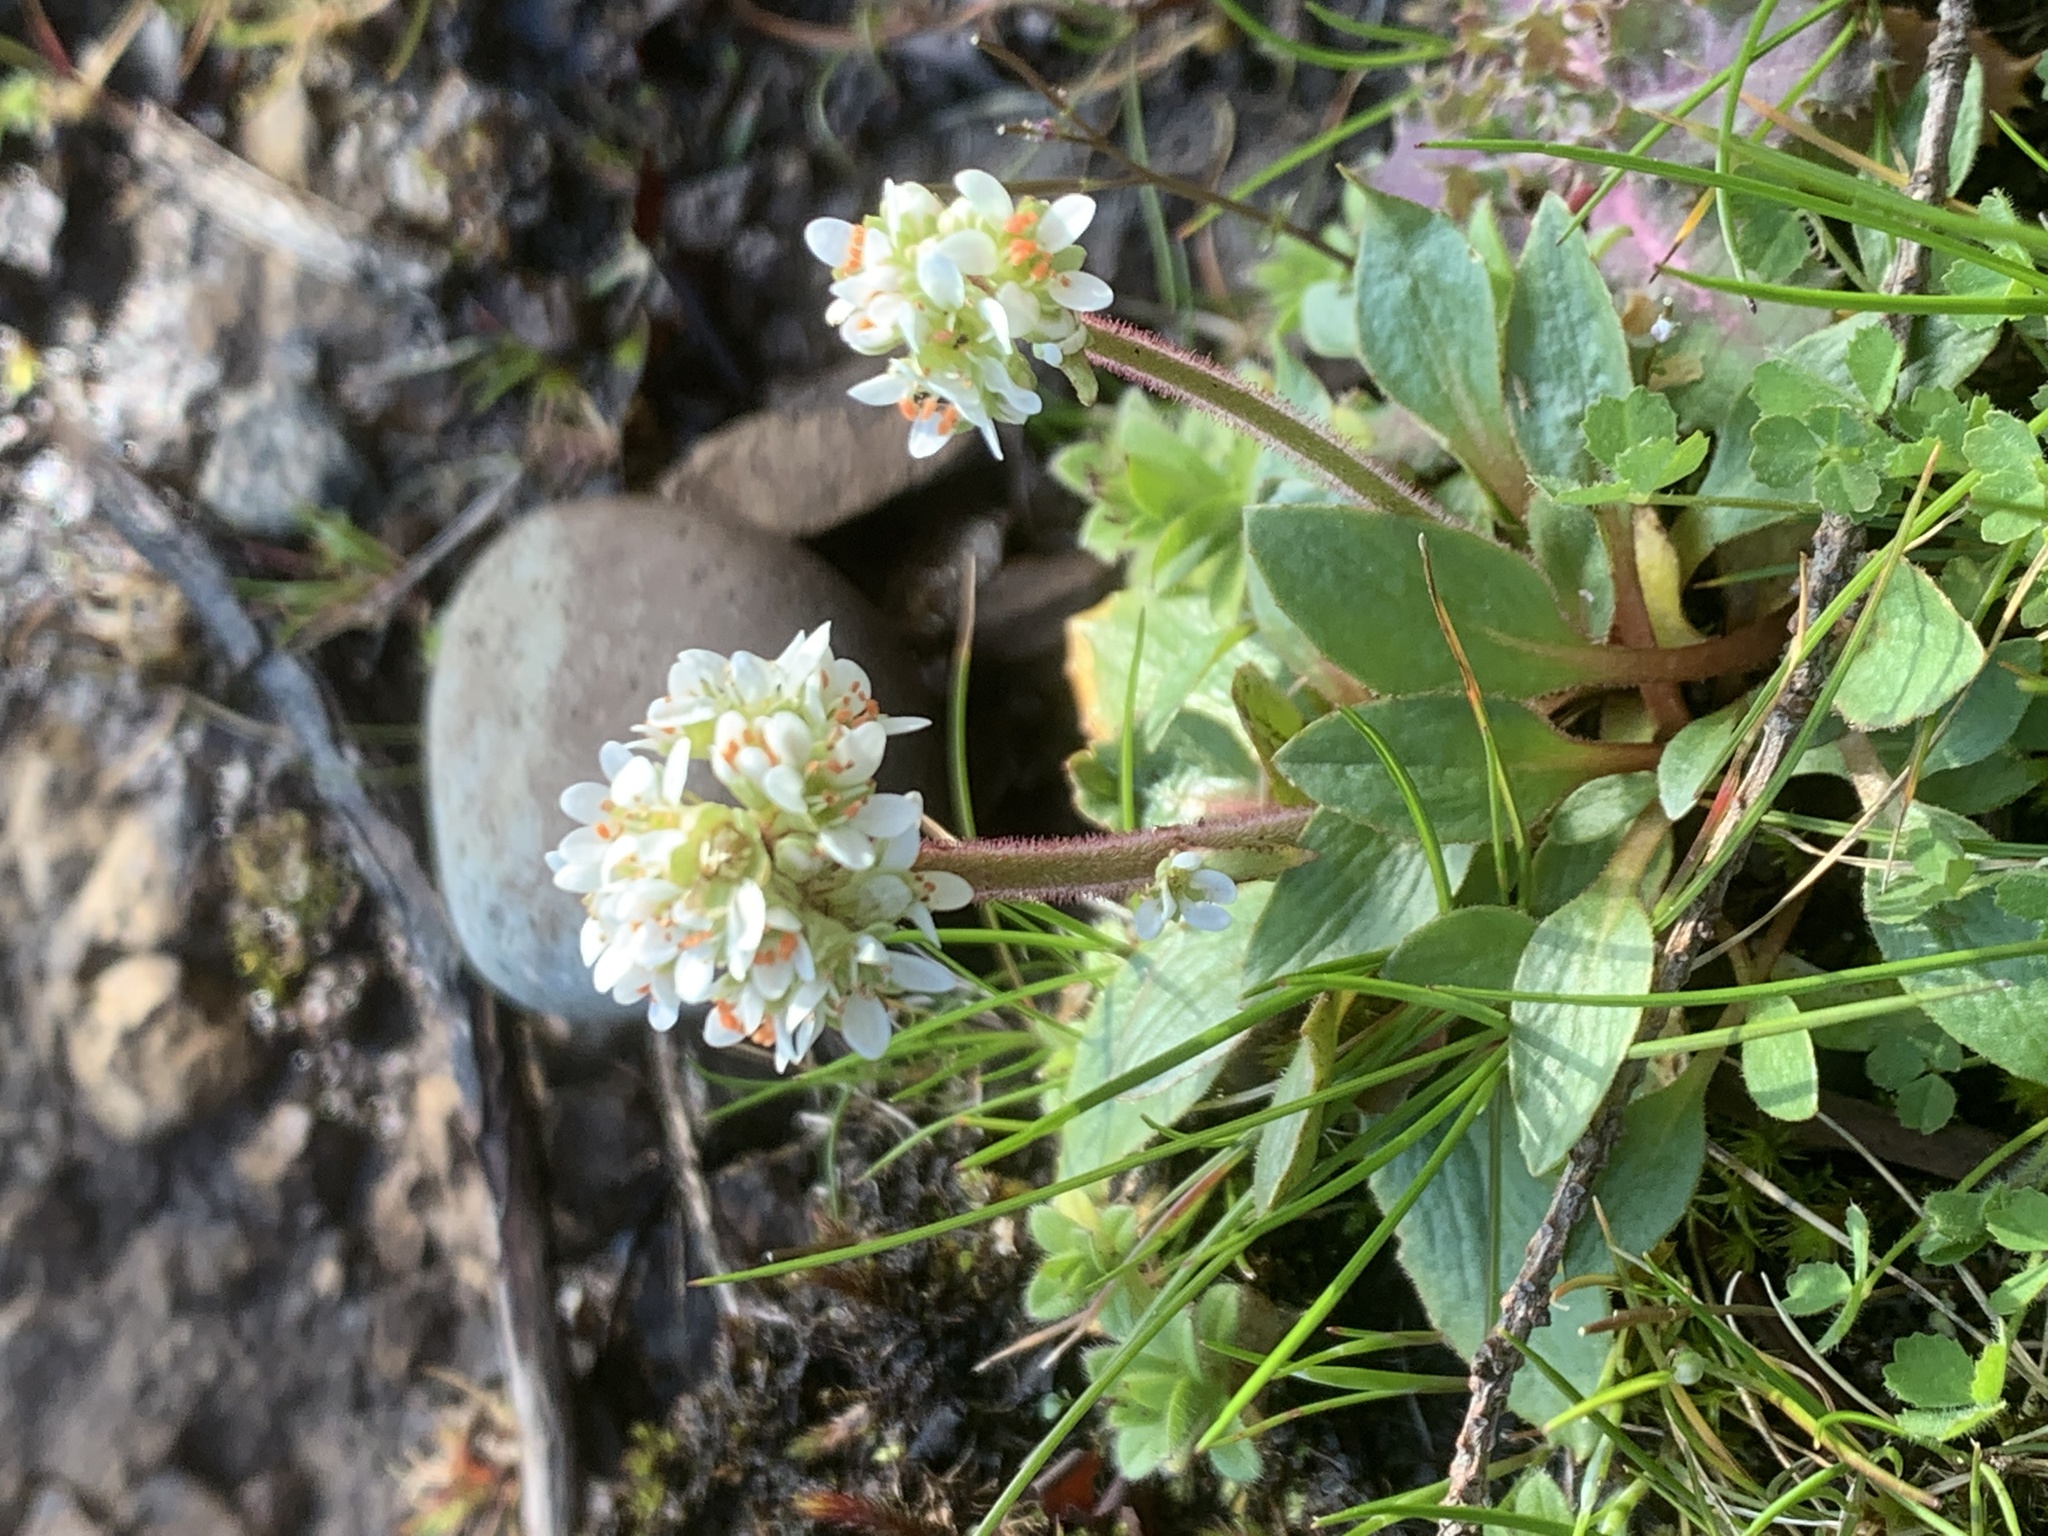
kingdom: Plantae
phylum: Tracheophyta
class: Magnoliopsida
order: Saxifragales
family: Saxifragaceae
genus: Micranthes
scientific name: Micranthes integrifolia
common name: Wholeleaf saxifrage
